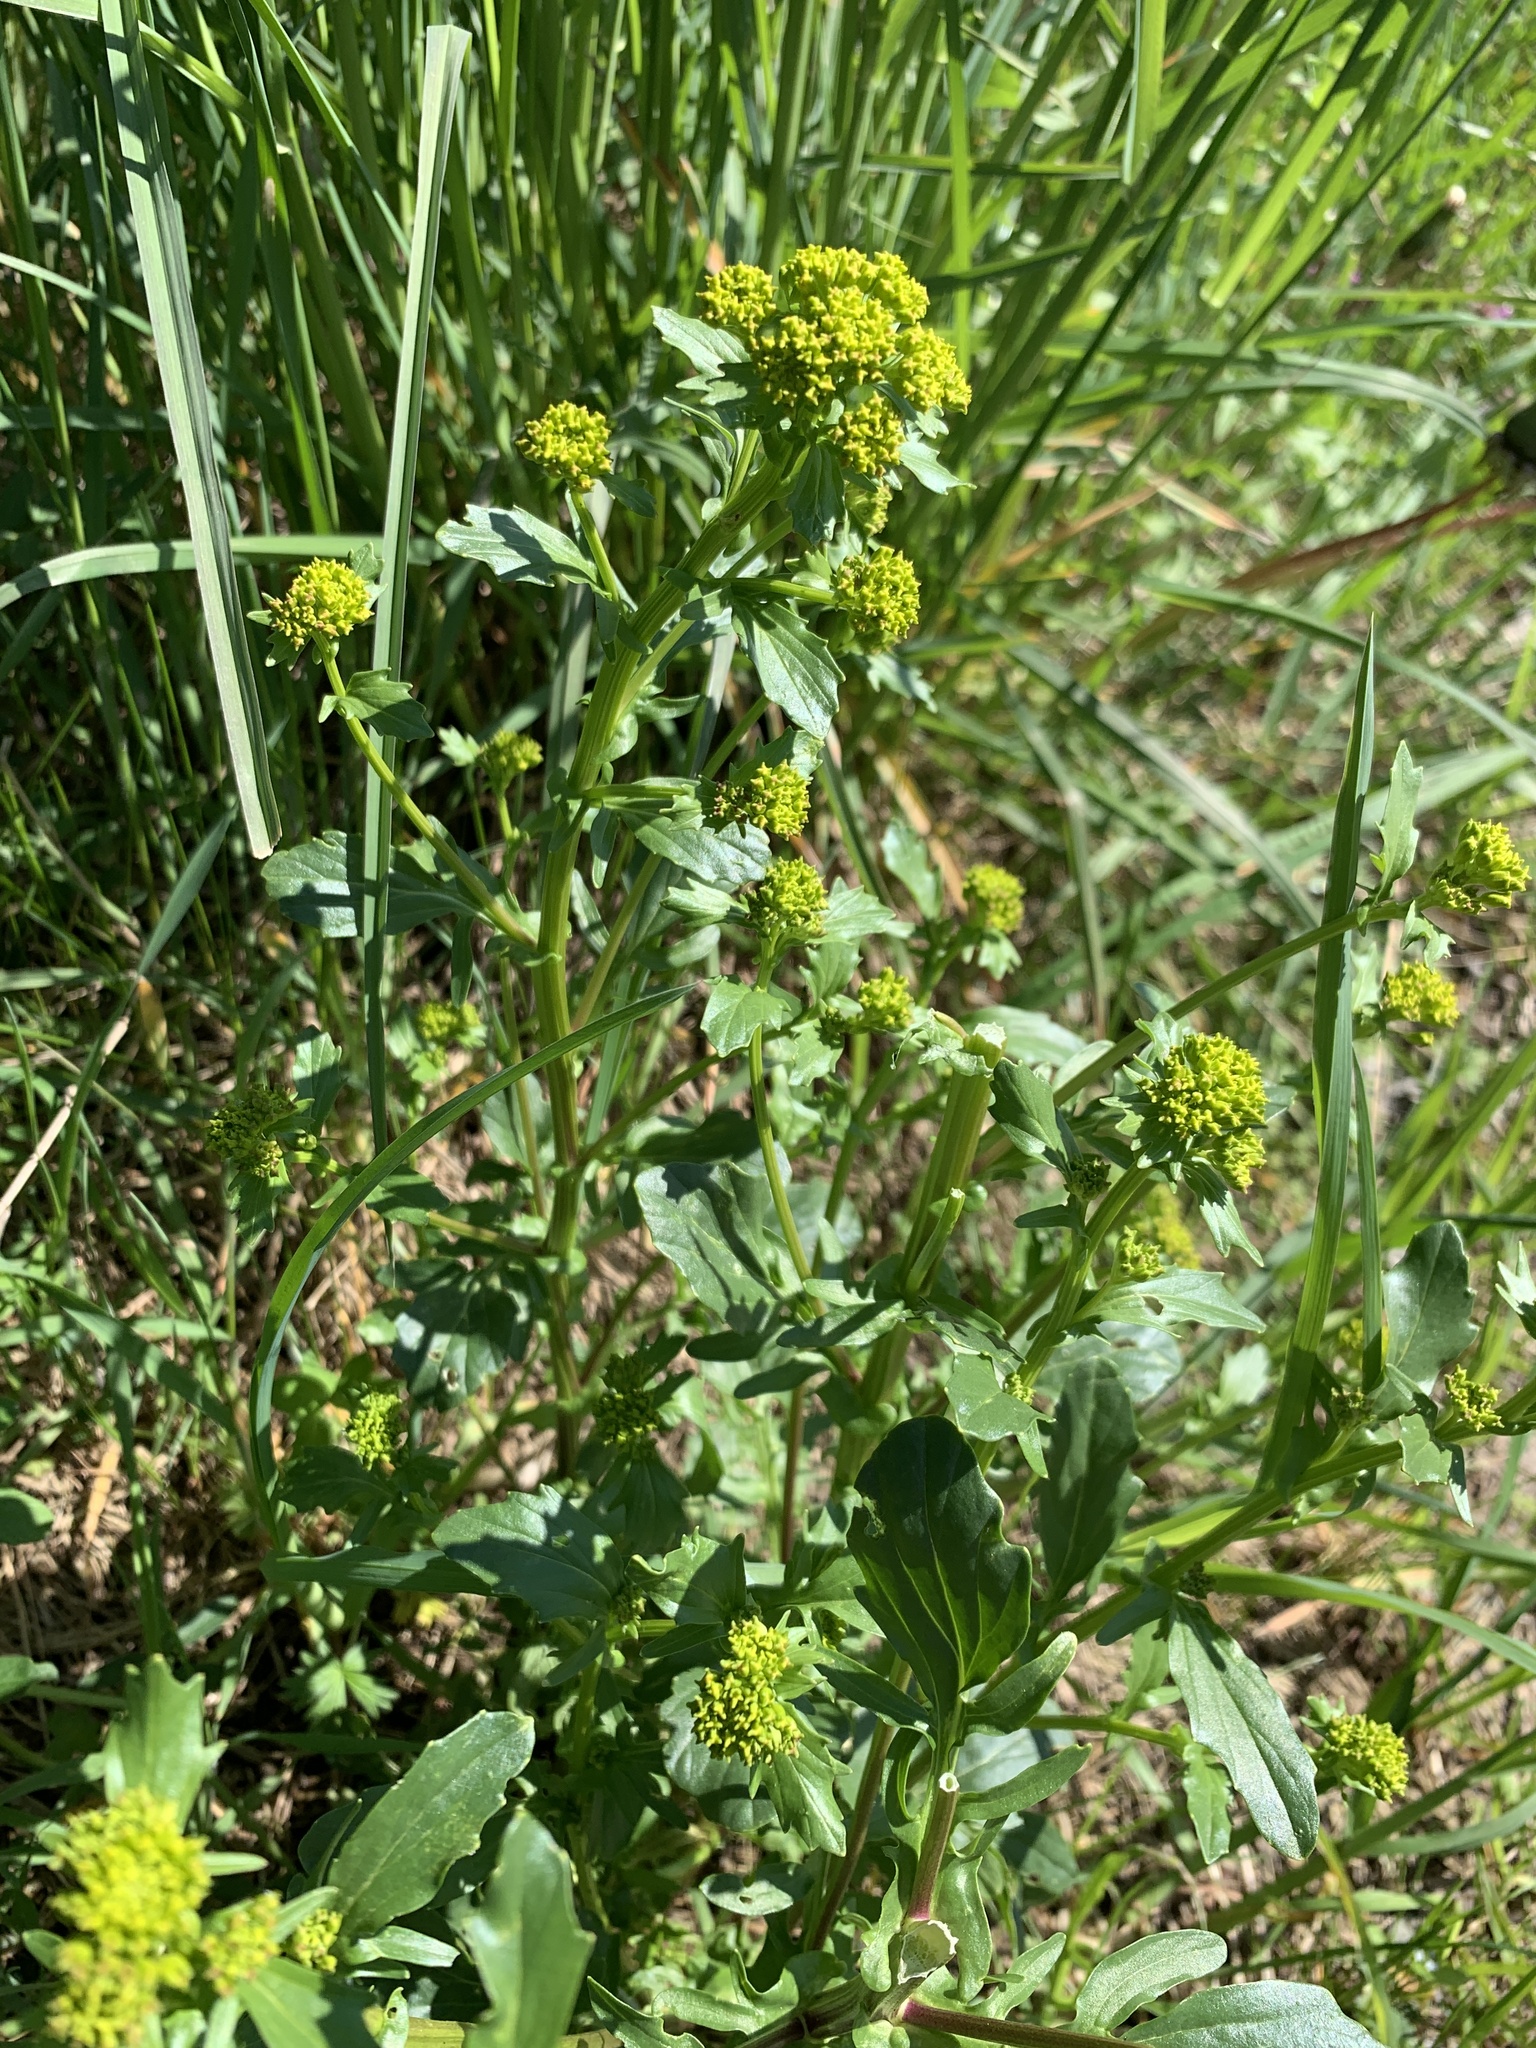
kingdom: Plantae
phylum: Tracheophyta
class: Magnoliopsida
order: Brassicales
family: Brassicaceae
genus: Barbarea
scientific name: Barbarea vulgaris
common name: Cressy-greens
